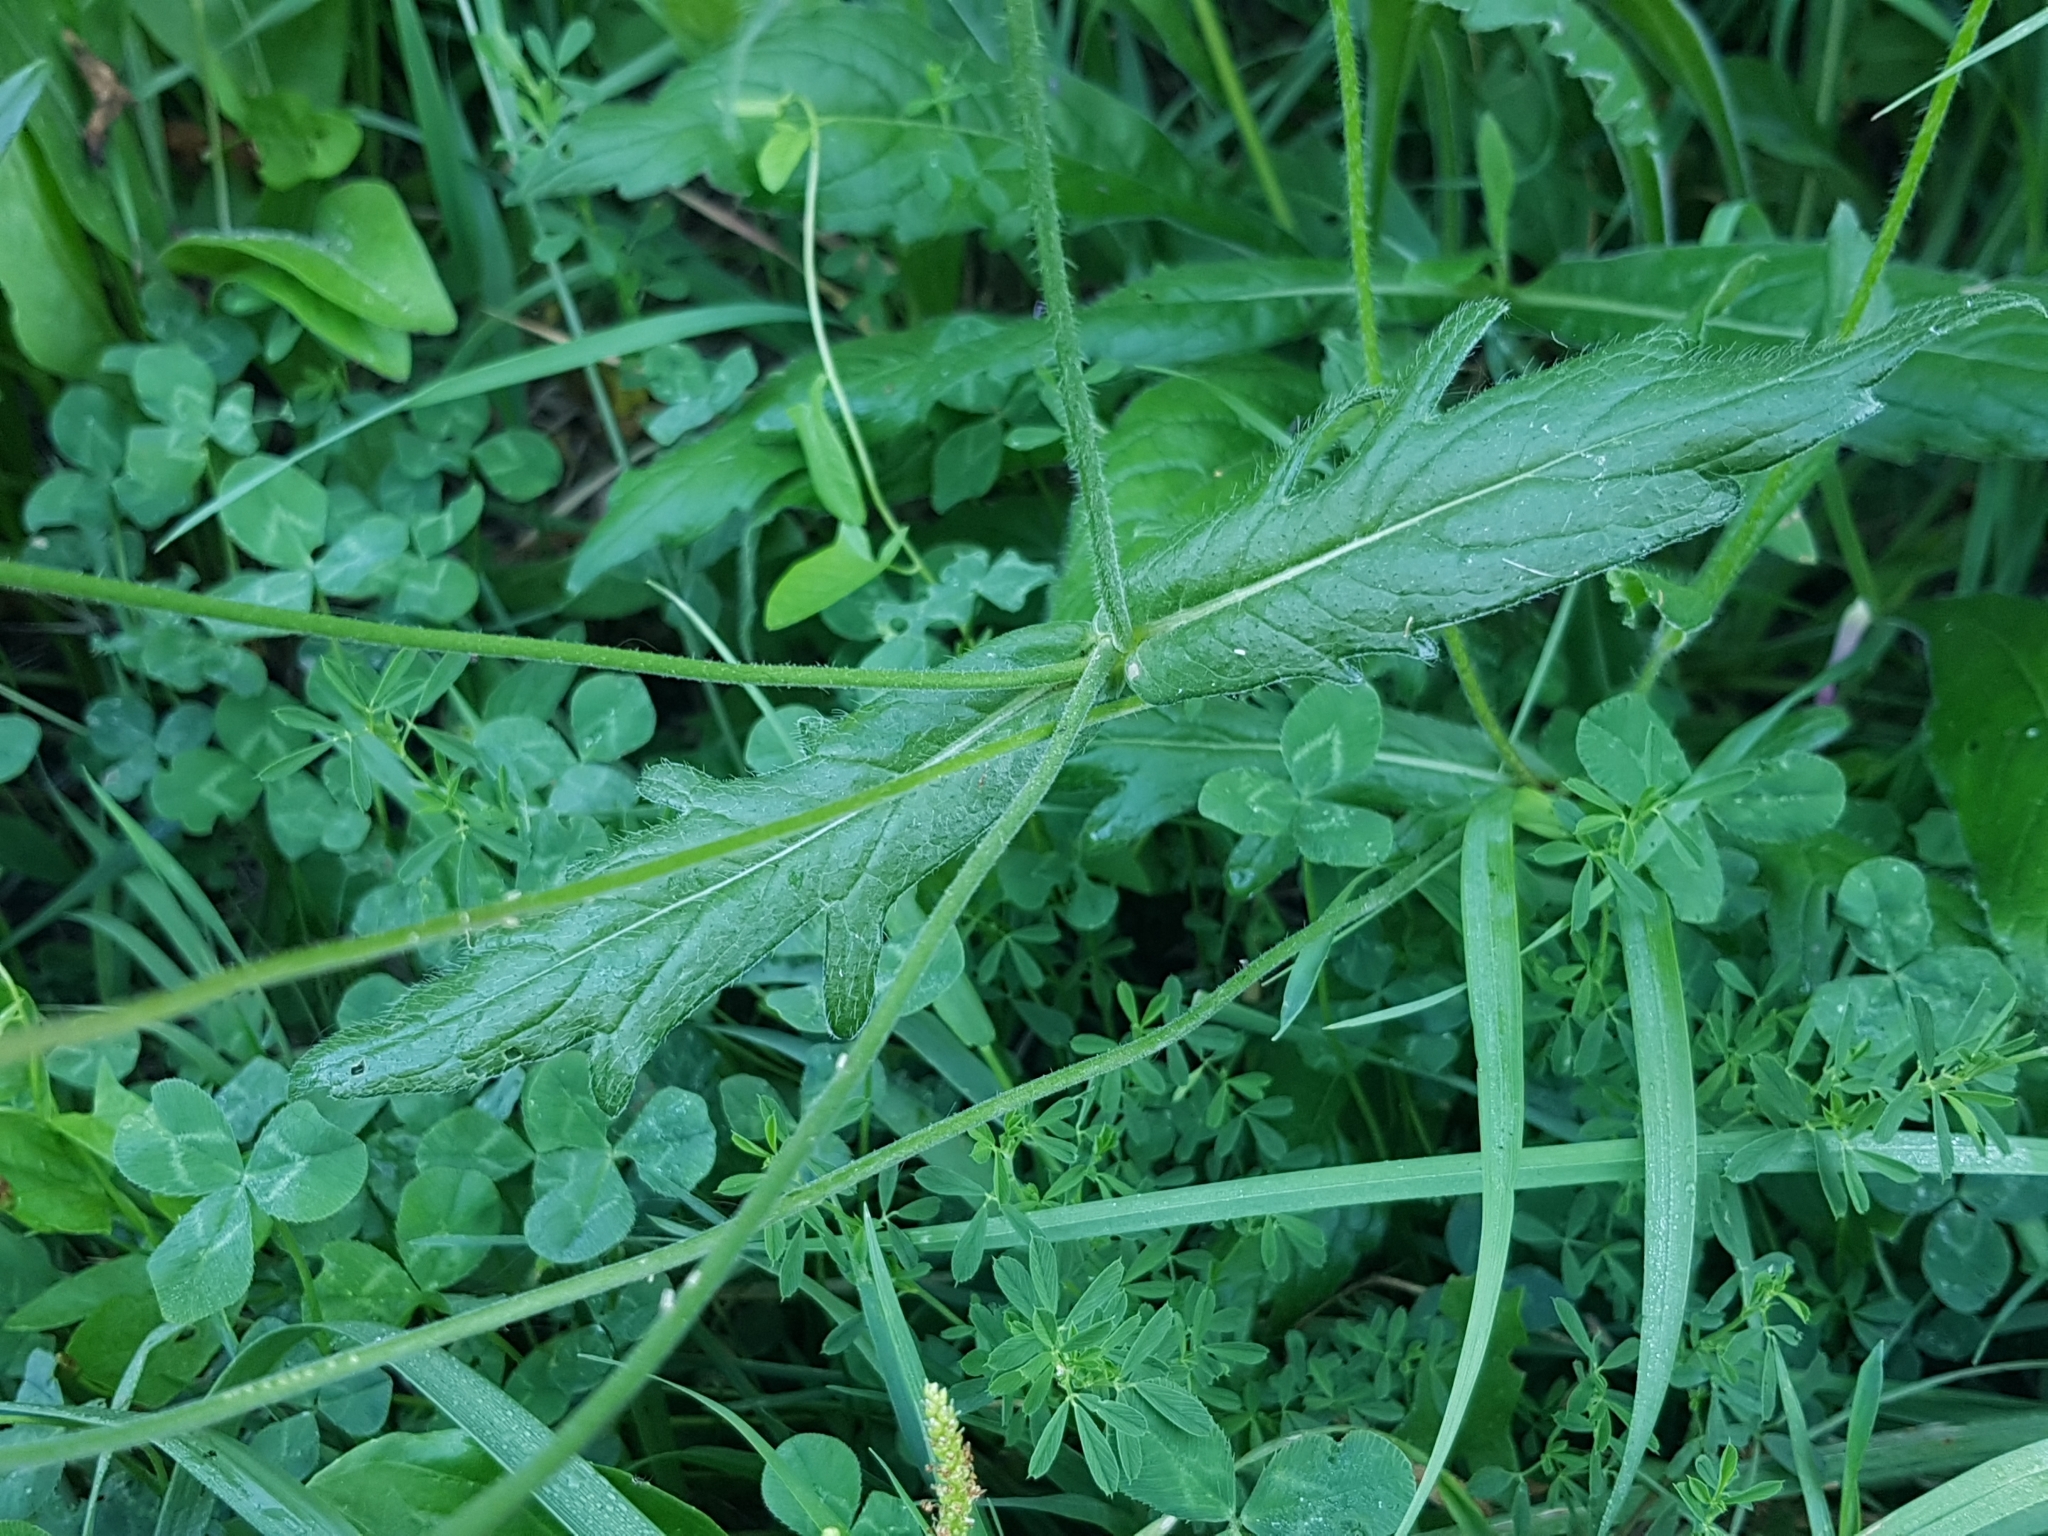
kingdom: Plantae
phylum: Tracheophyta
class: Magnoliopsida
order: Dipsacales
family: Caprifoliaceae
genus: Knautia
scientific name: Knautia arvensis
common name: Field scabiosa
